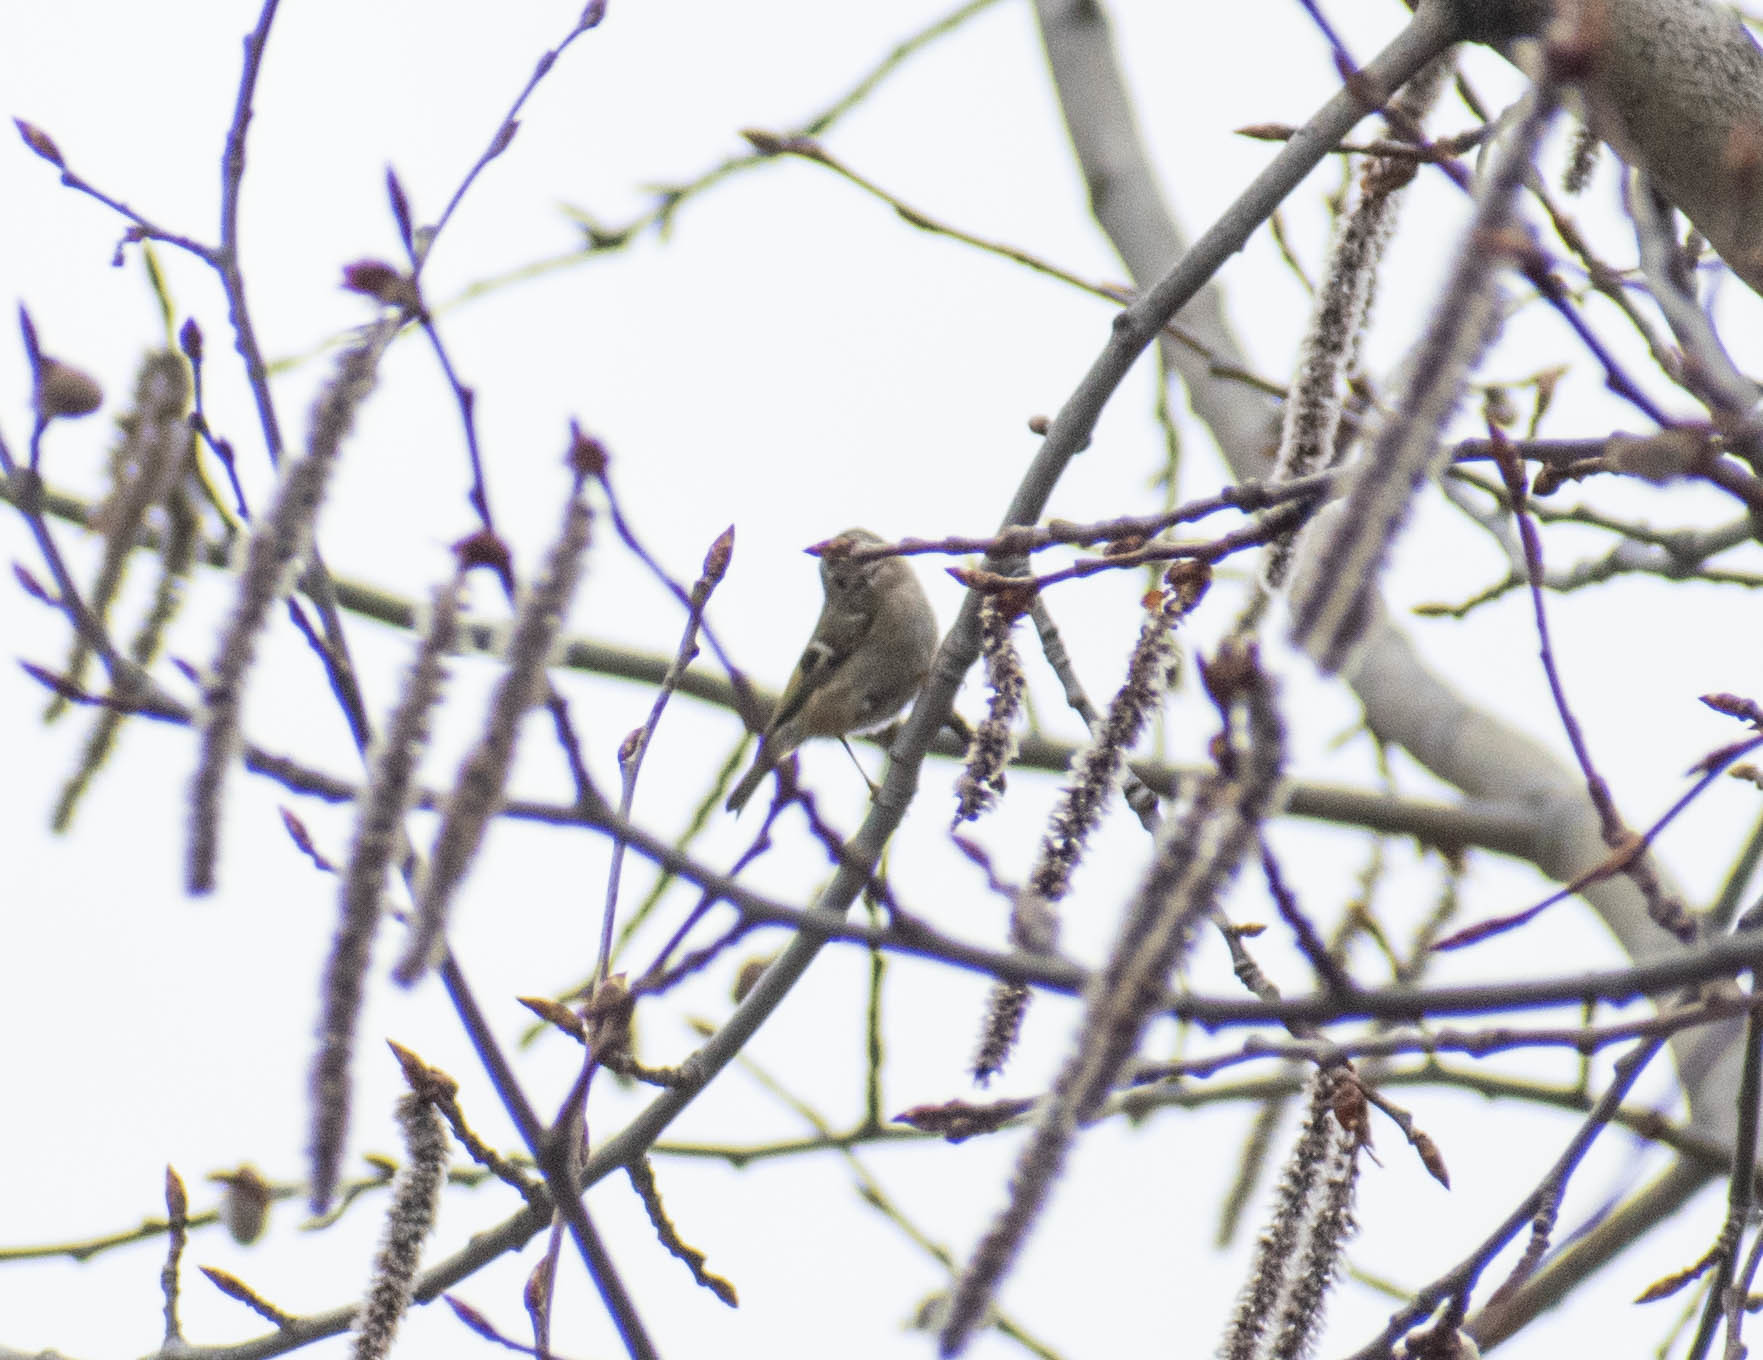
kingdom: Animalia
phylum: Chordata
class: Aves
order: Passeriformes
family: Regulidae
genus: Regulus
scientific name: Regulus regulus
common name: Goldcrest
